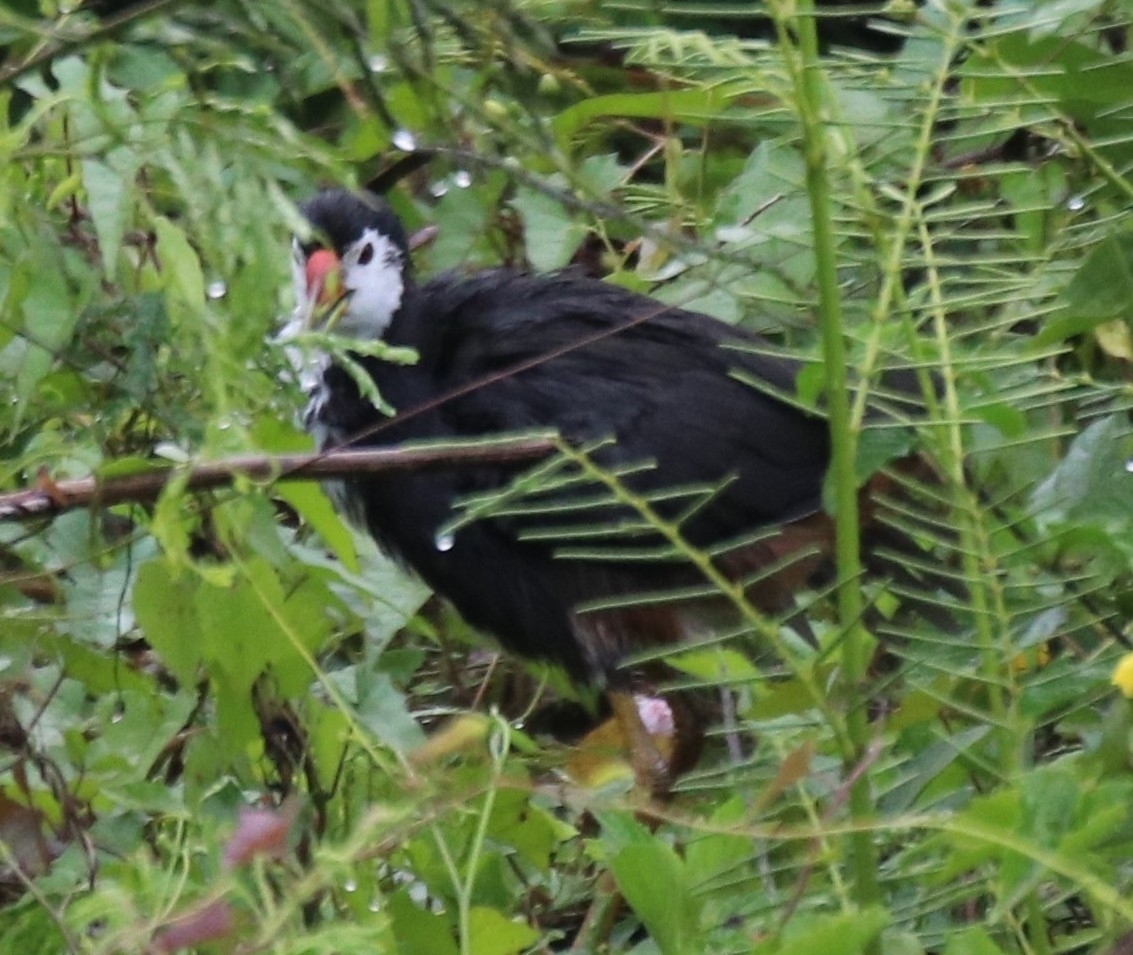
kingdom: Animalia
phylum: Chordata
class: Aves
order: Gruiformes
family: Rallidae
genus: Amaurornis
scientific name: Amaurornis phoenicurus
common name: White-breasted waterhen
